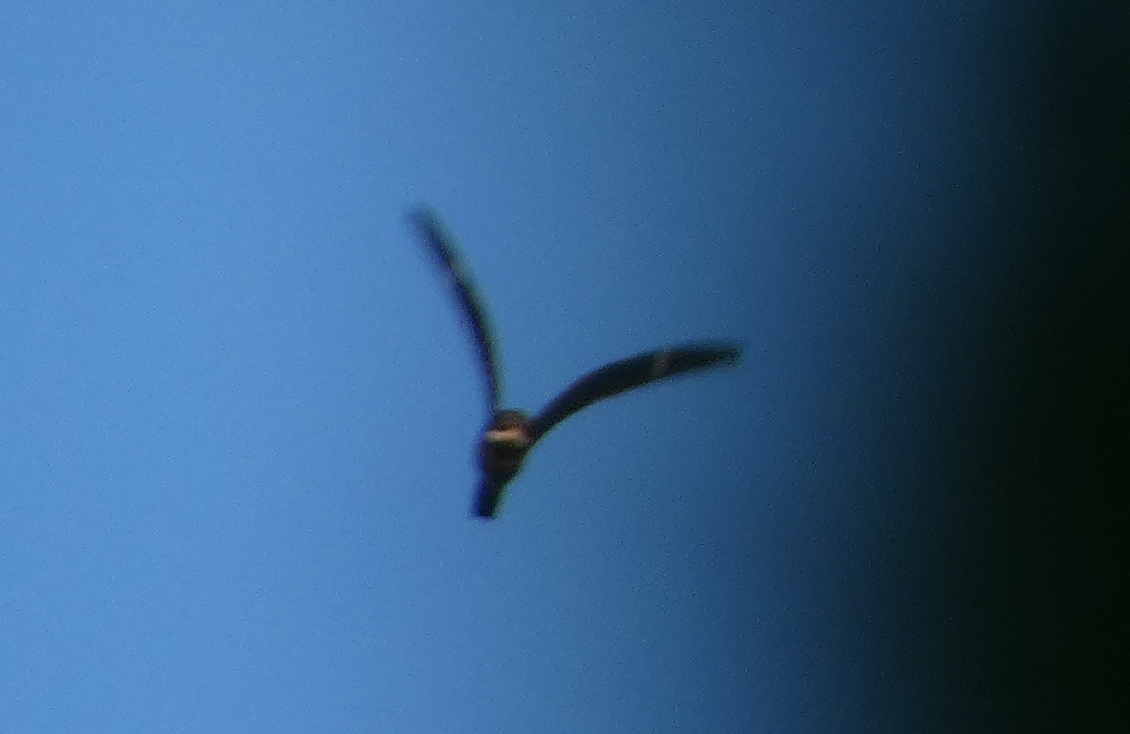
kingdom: Animalia
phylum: Chordata
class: Aves
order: Caprimulgiformes
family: Caprimulgidae
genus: Chordeiles
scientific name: Chordeiles minor
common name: Common nighthawk
